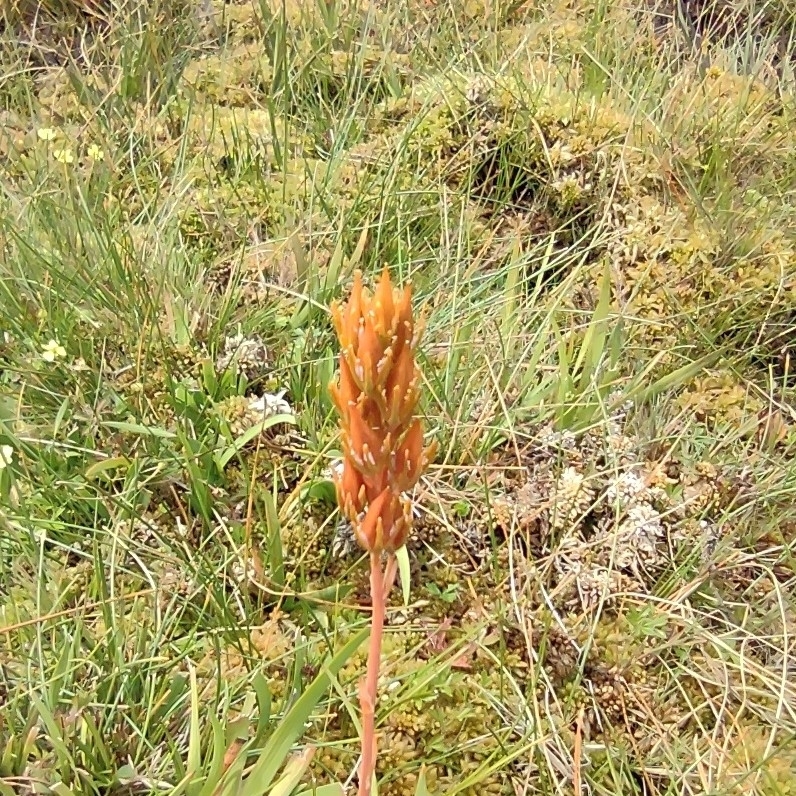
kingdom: Plantae
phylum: Tracheophyta
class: Liliopsida
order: Dioscoreales
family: Nartheciaceae
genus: Narthecium
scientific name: Narthecium ossifragum
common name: Bog asphodel
